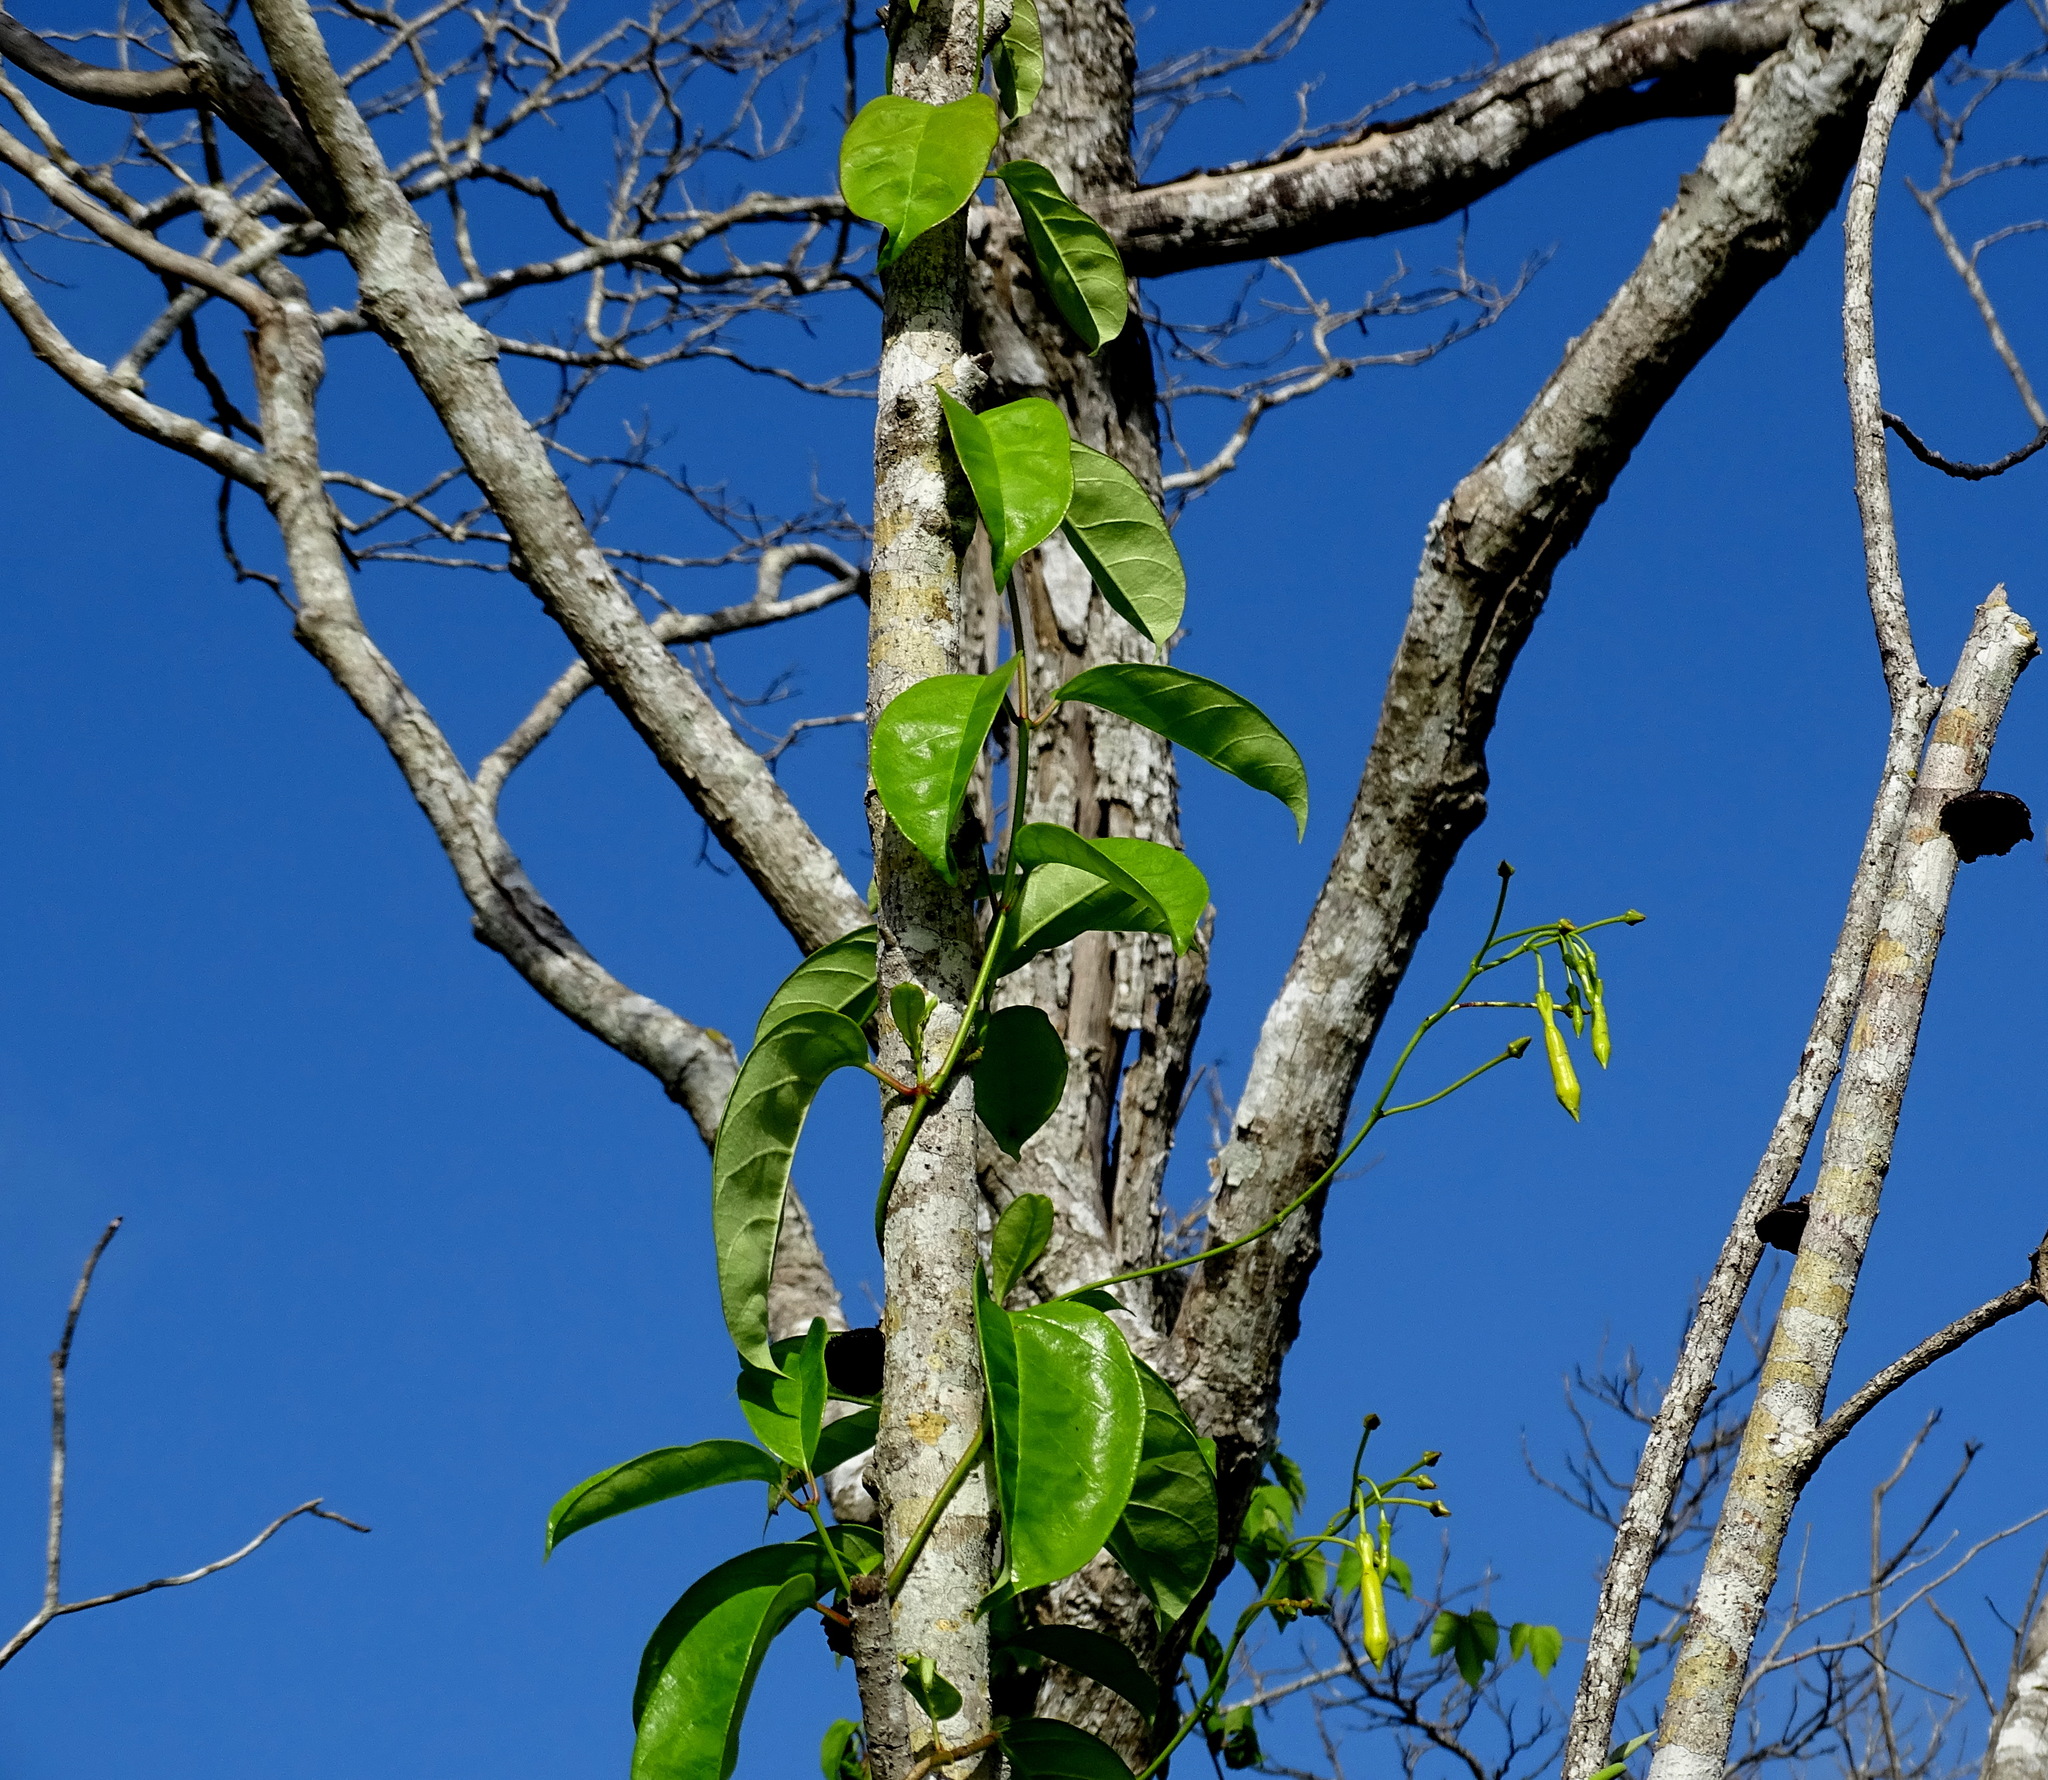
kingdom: Plantae
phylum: Tracheophyta
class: Magnoliopsida
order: Gentianales
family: Apocynaceae
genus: Pentalinon
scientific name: Pentalinon andrieuxii
